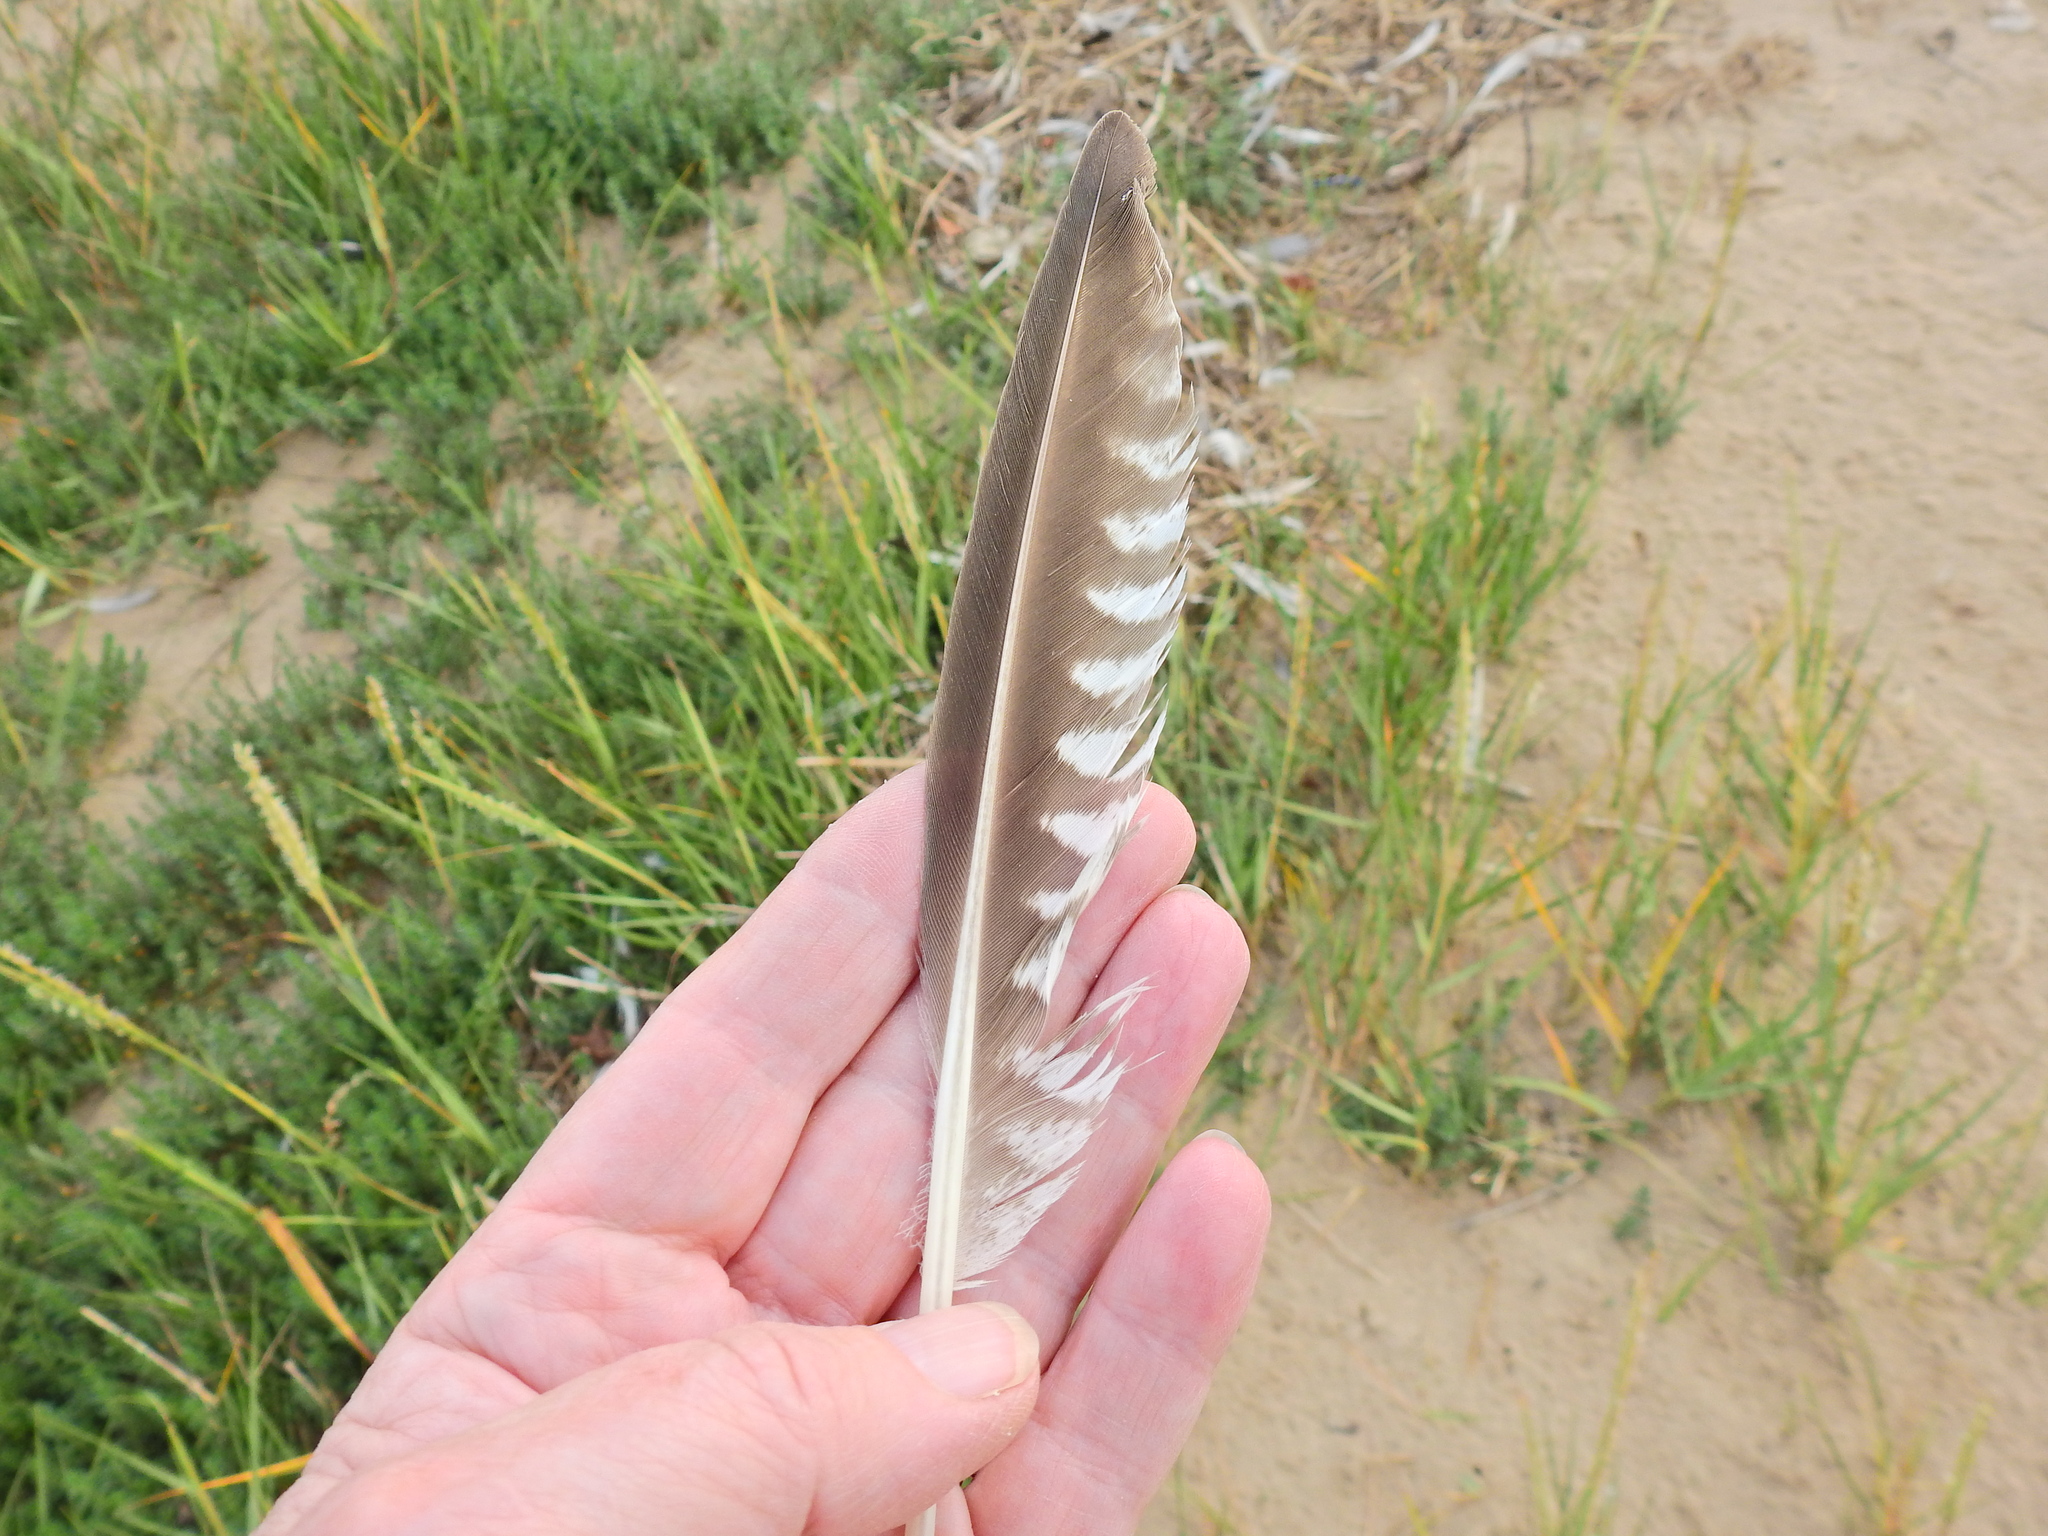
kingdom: Animalia
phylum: Chordata
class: Aves
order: Charadriiformes
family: Scolopacidae
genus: Numenius
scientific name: Numenius arquata
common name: Eurasian curlew
